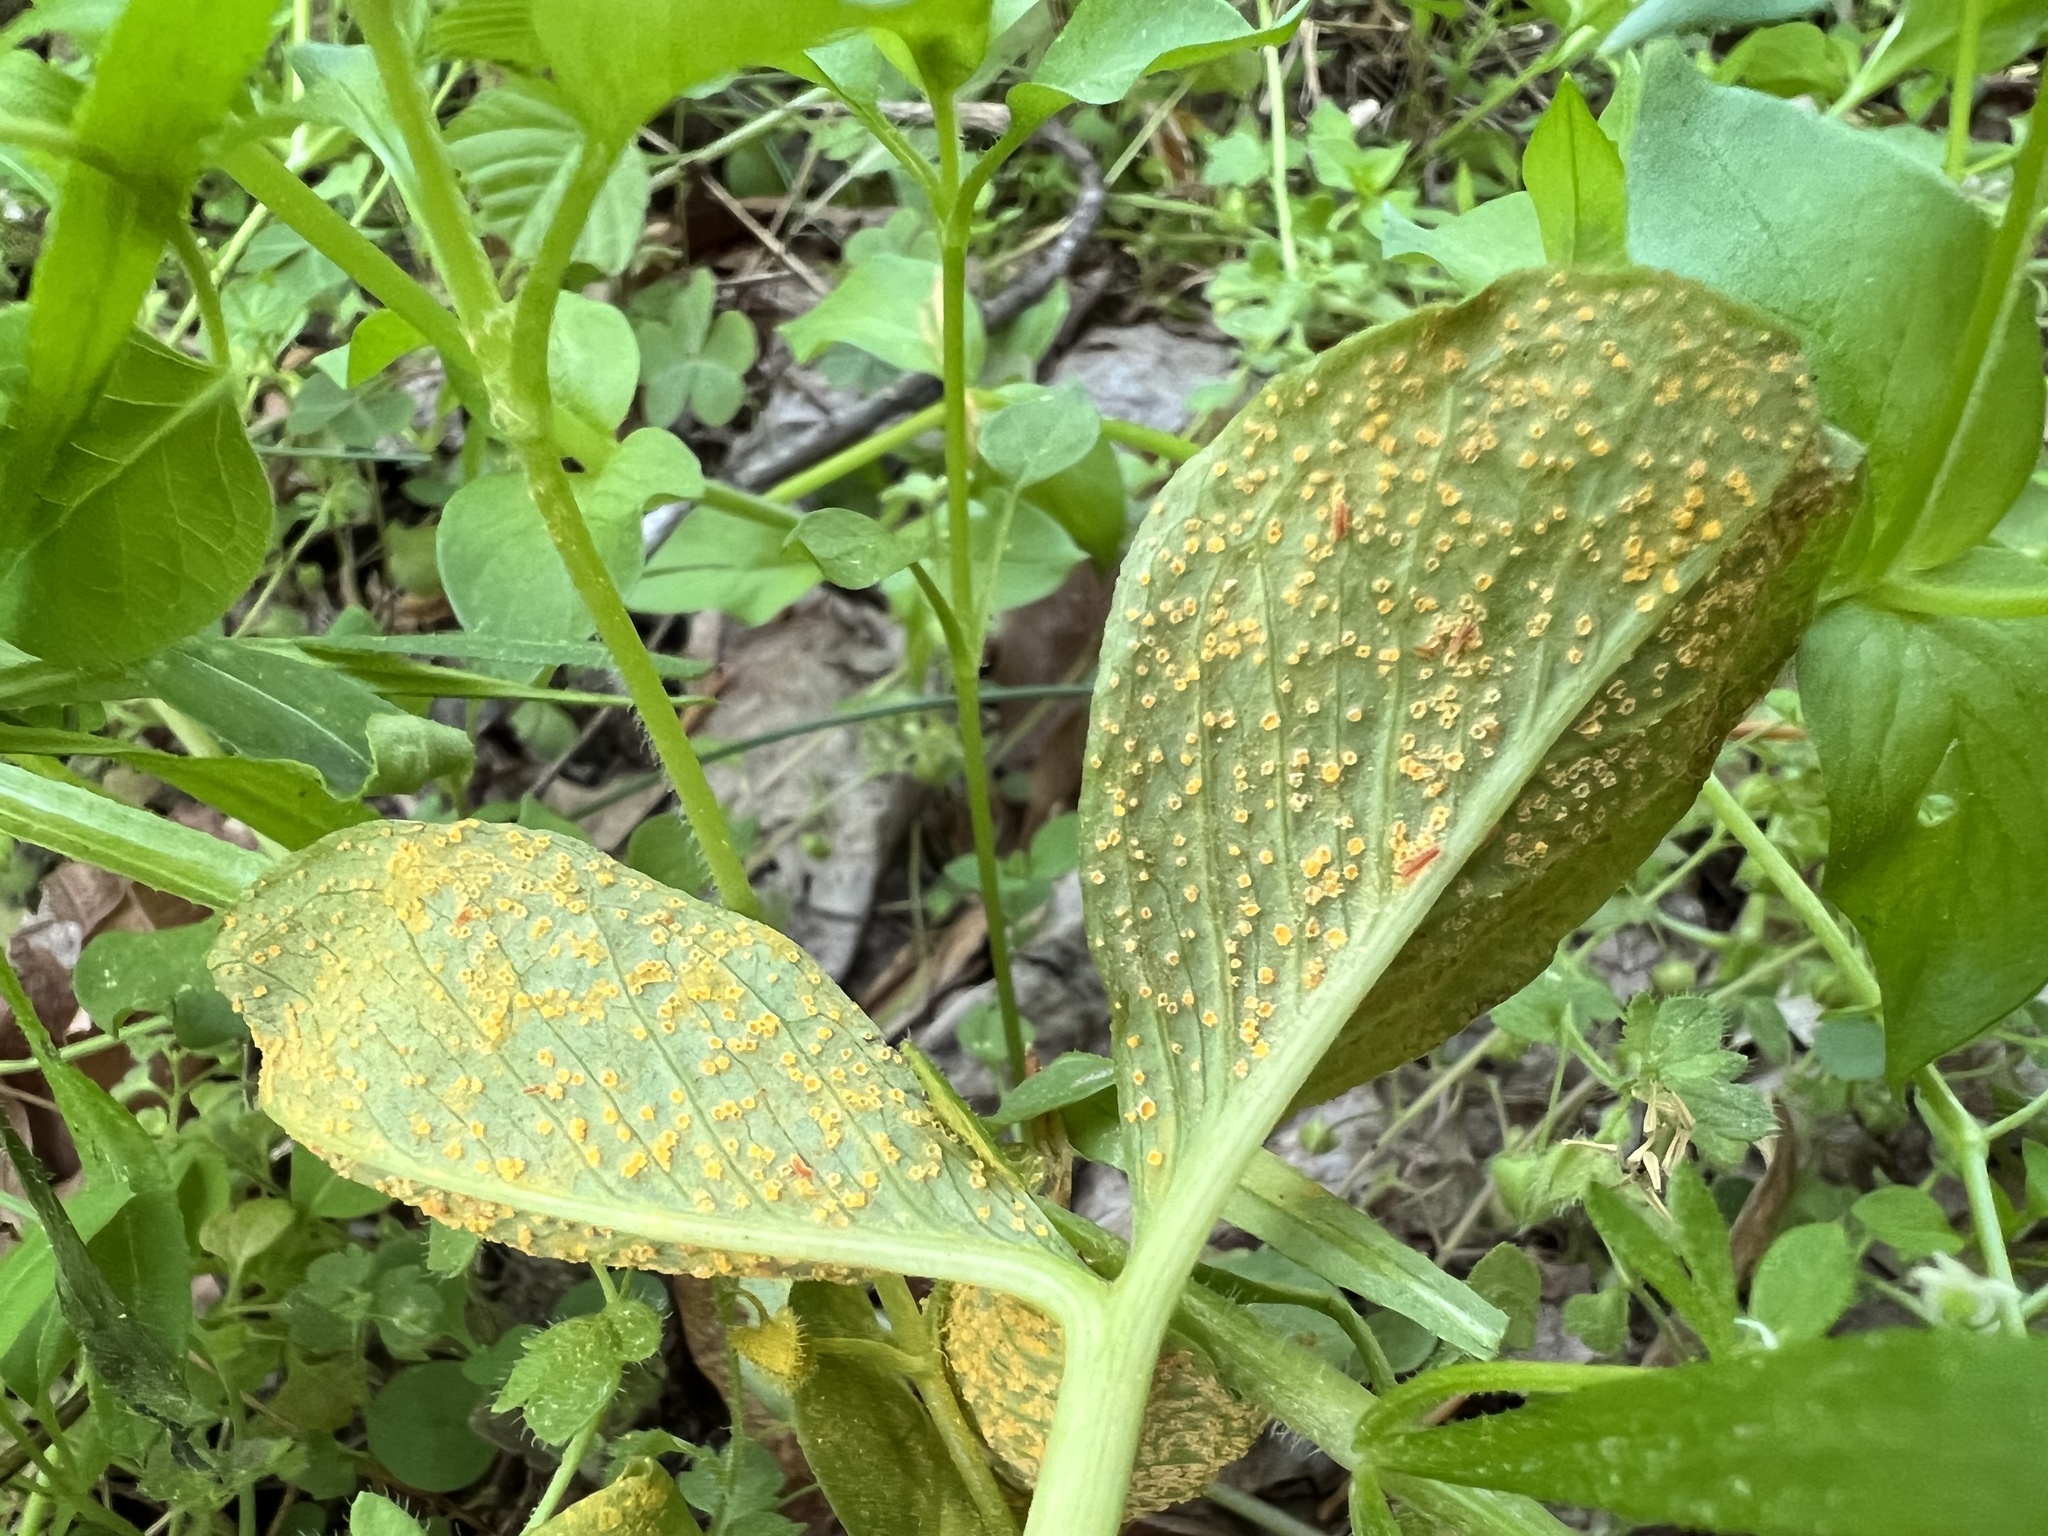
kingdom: Fungi
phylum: Basidiomycota
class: Pucciniomycetes
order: Pucciniales
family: Pucciniaceae
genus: Uromyces
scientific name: Uromyces ari-triphylli
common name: Jack-in-the-pulpit rust
